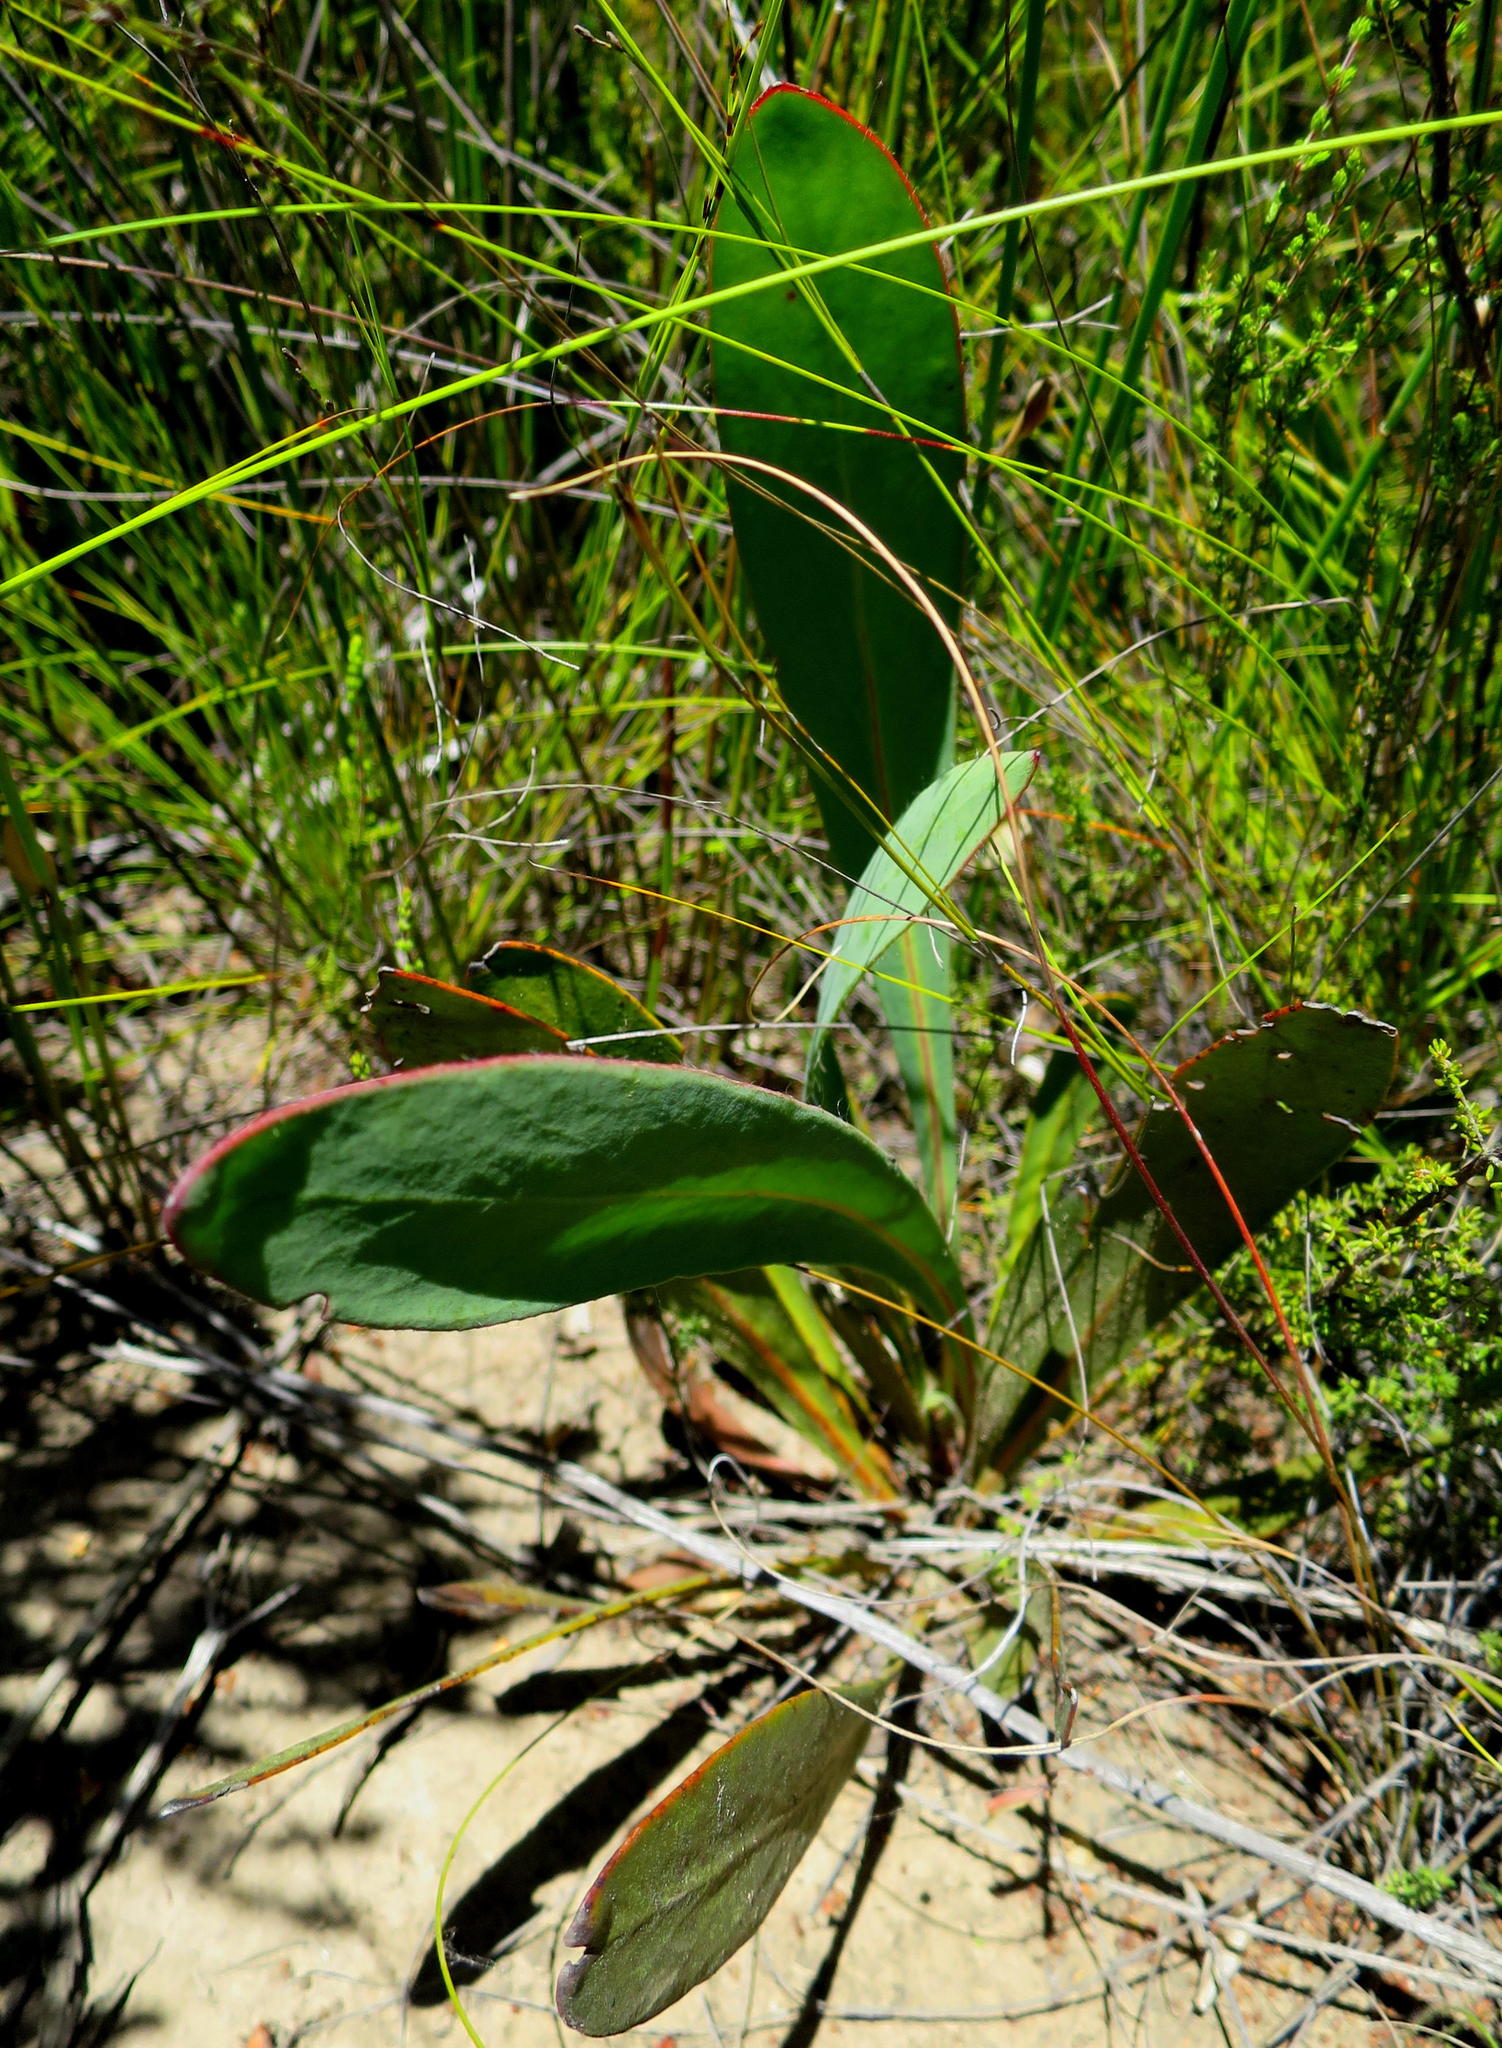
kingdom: Plantae
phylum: Tracheophyta
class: Magnoliopsida
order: Proteales
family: Proteaceae
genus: Protea
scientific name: Protea vogtsiae
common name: Kouga sugarbush
